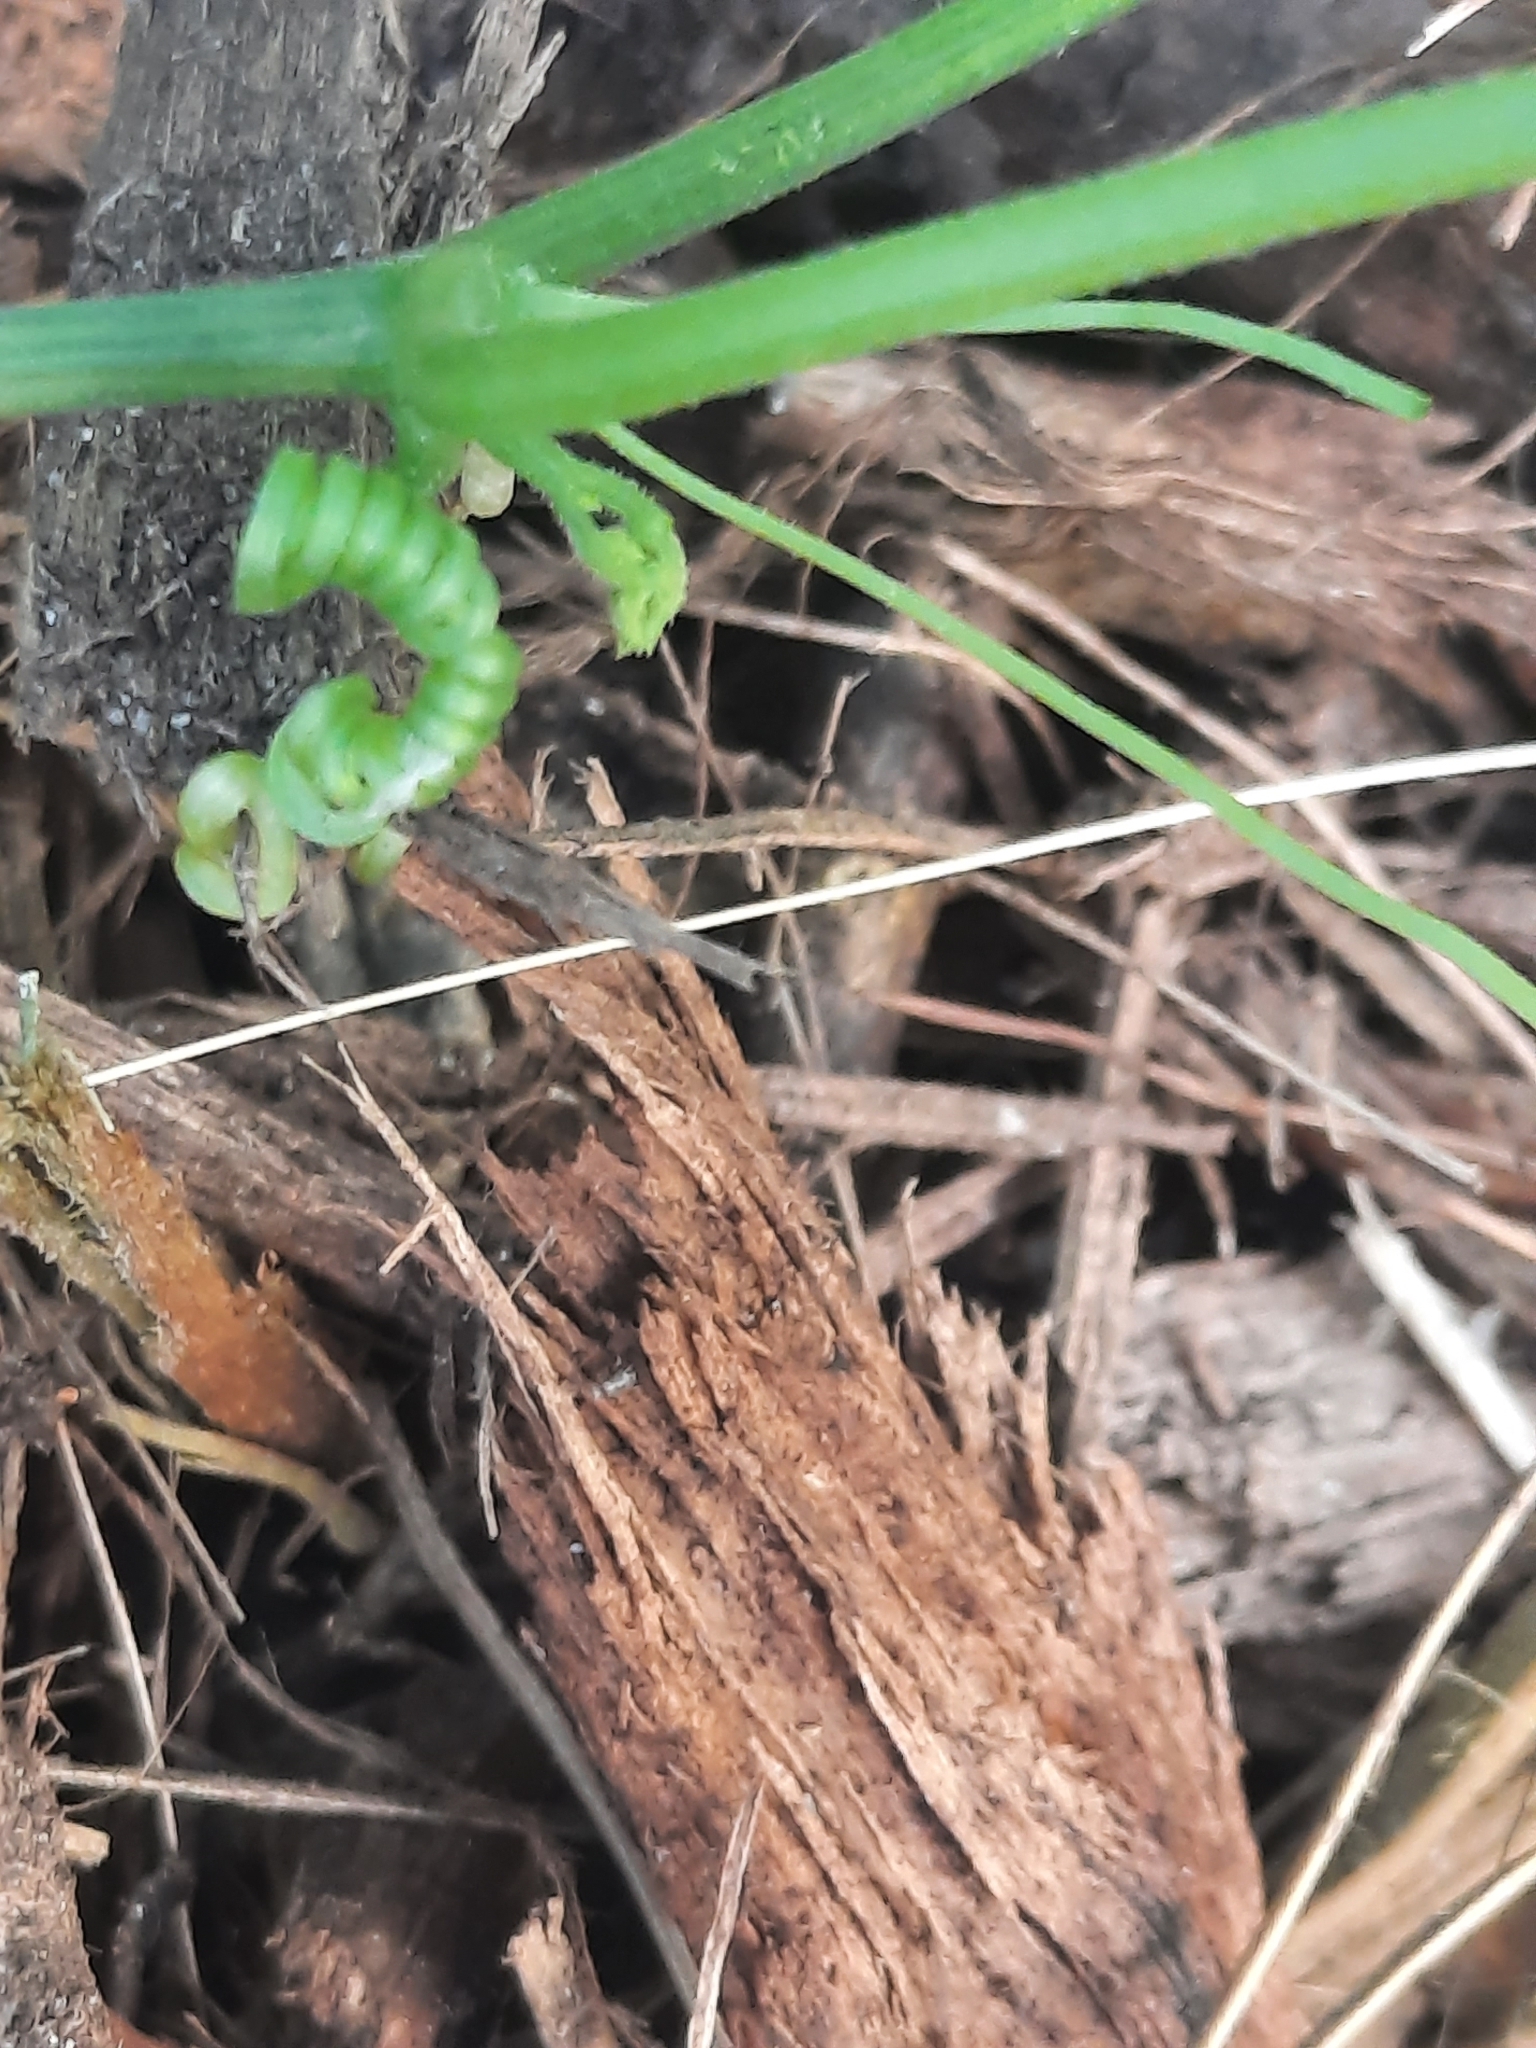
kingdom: Plantae
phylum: Tracheophyta
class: Magnoliopsida
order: Cucurbitales
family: Cucurbitaceae
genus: Melothria
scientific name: Melothria pendula
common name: Creeping-cucumber
